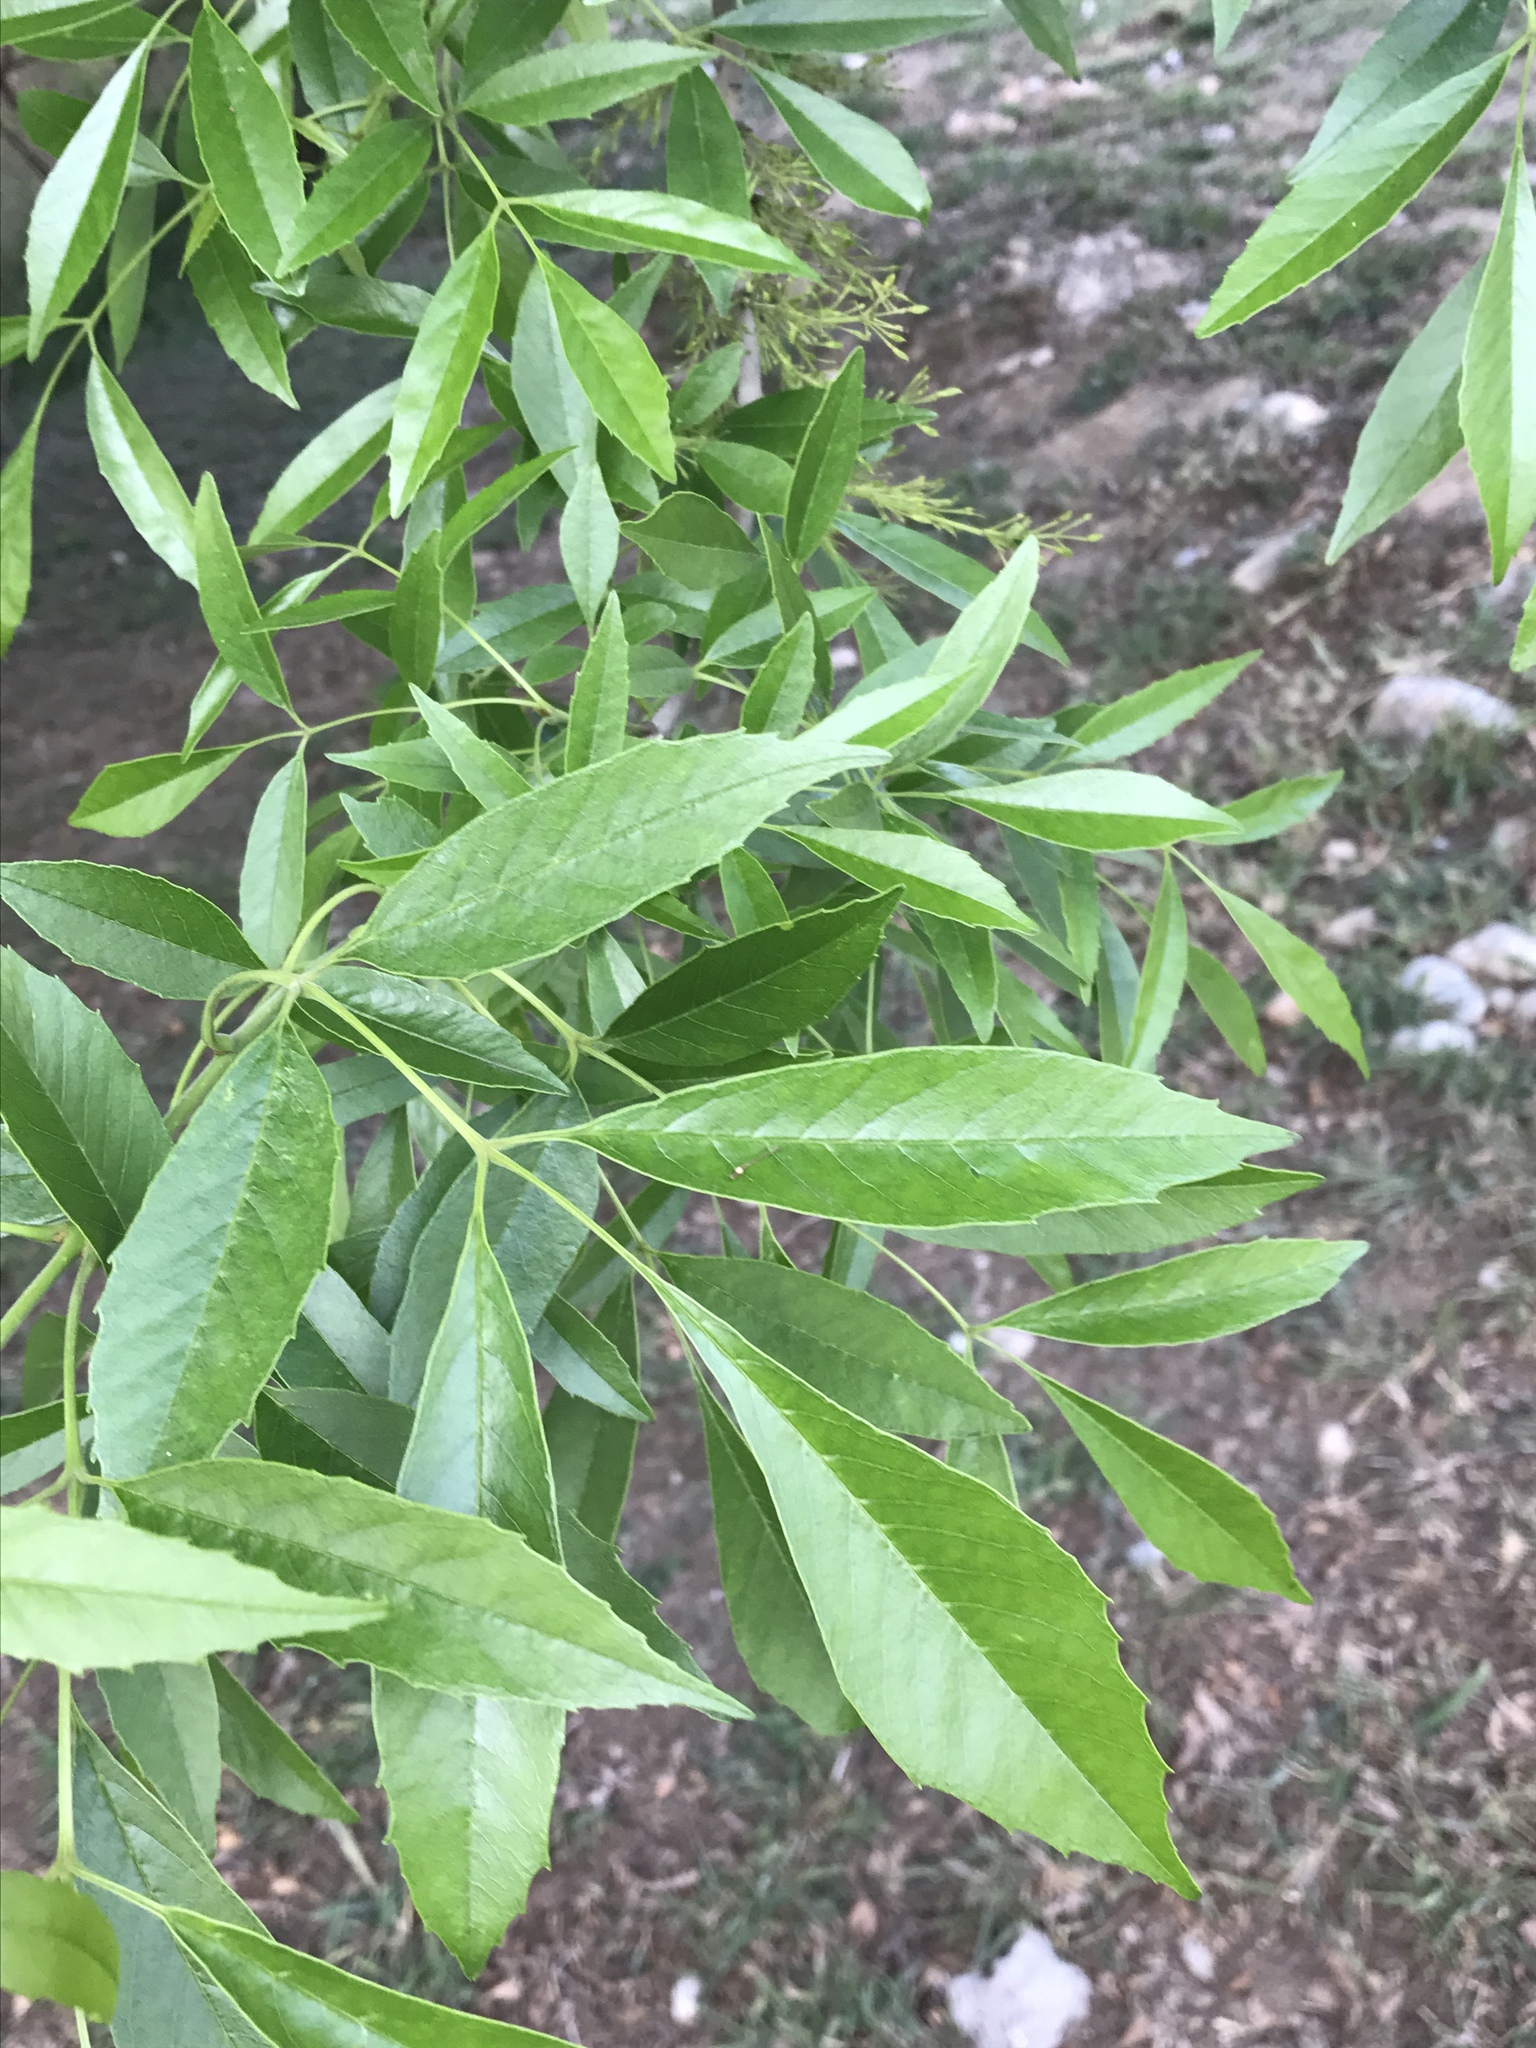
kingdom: Plantae
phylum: Tracheophyta
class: Magnoliopsida
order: Lamiales
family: Oleaceae
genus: Fraxinus
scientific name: Fraxinus berlandieriana
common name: Berlandier ash
